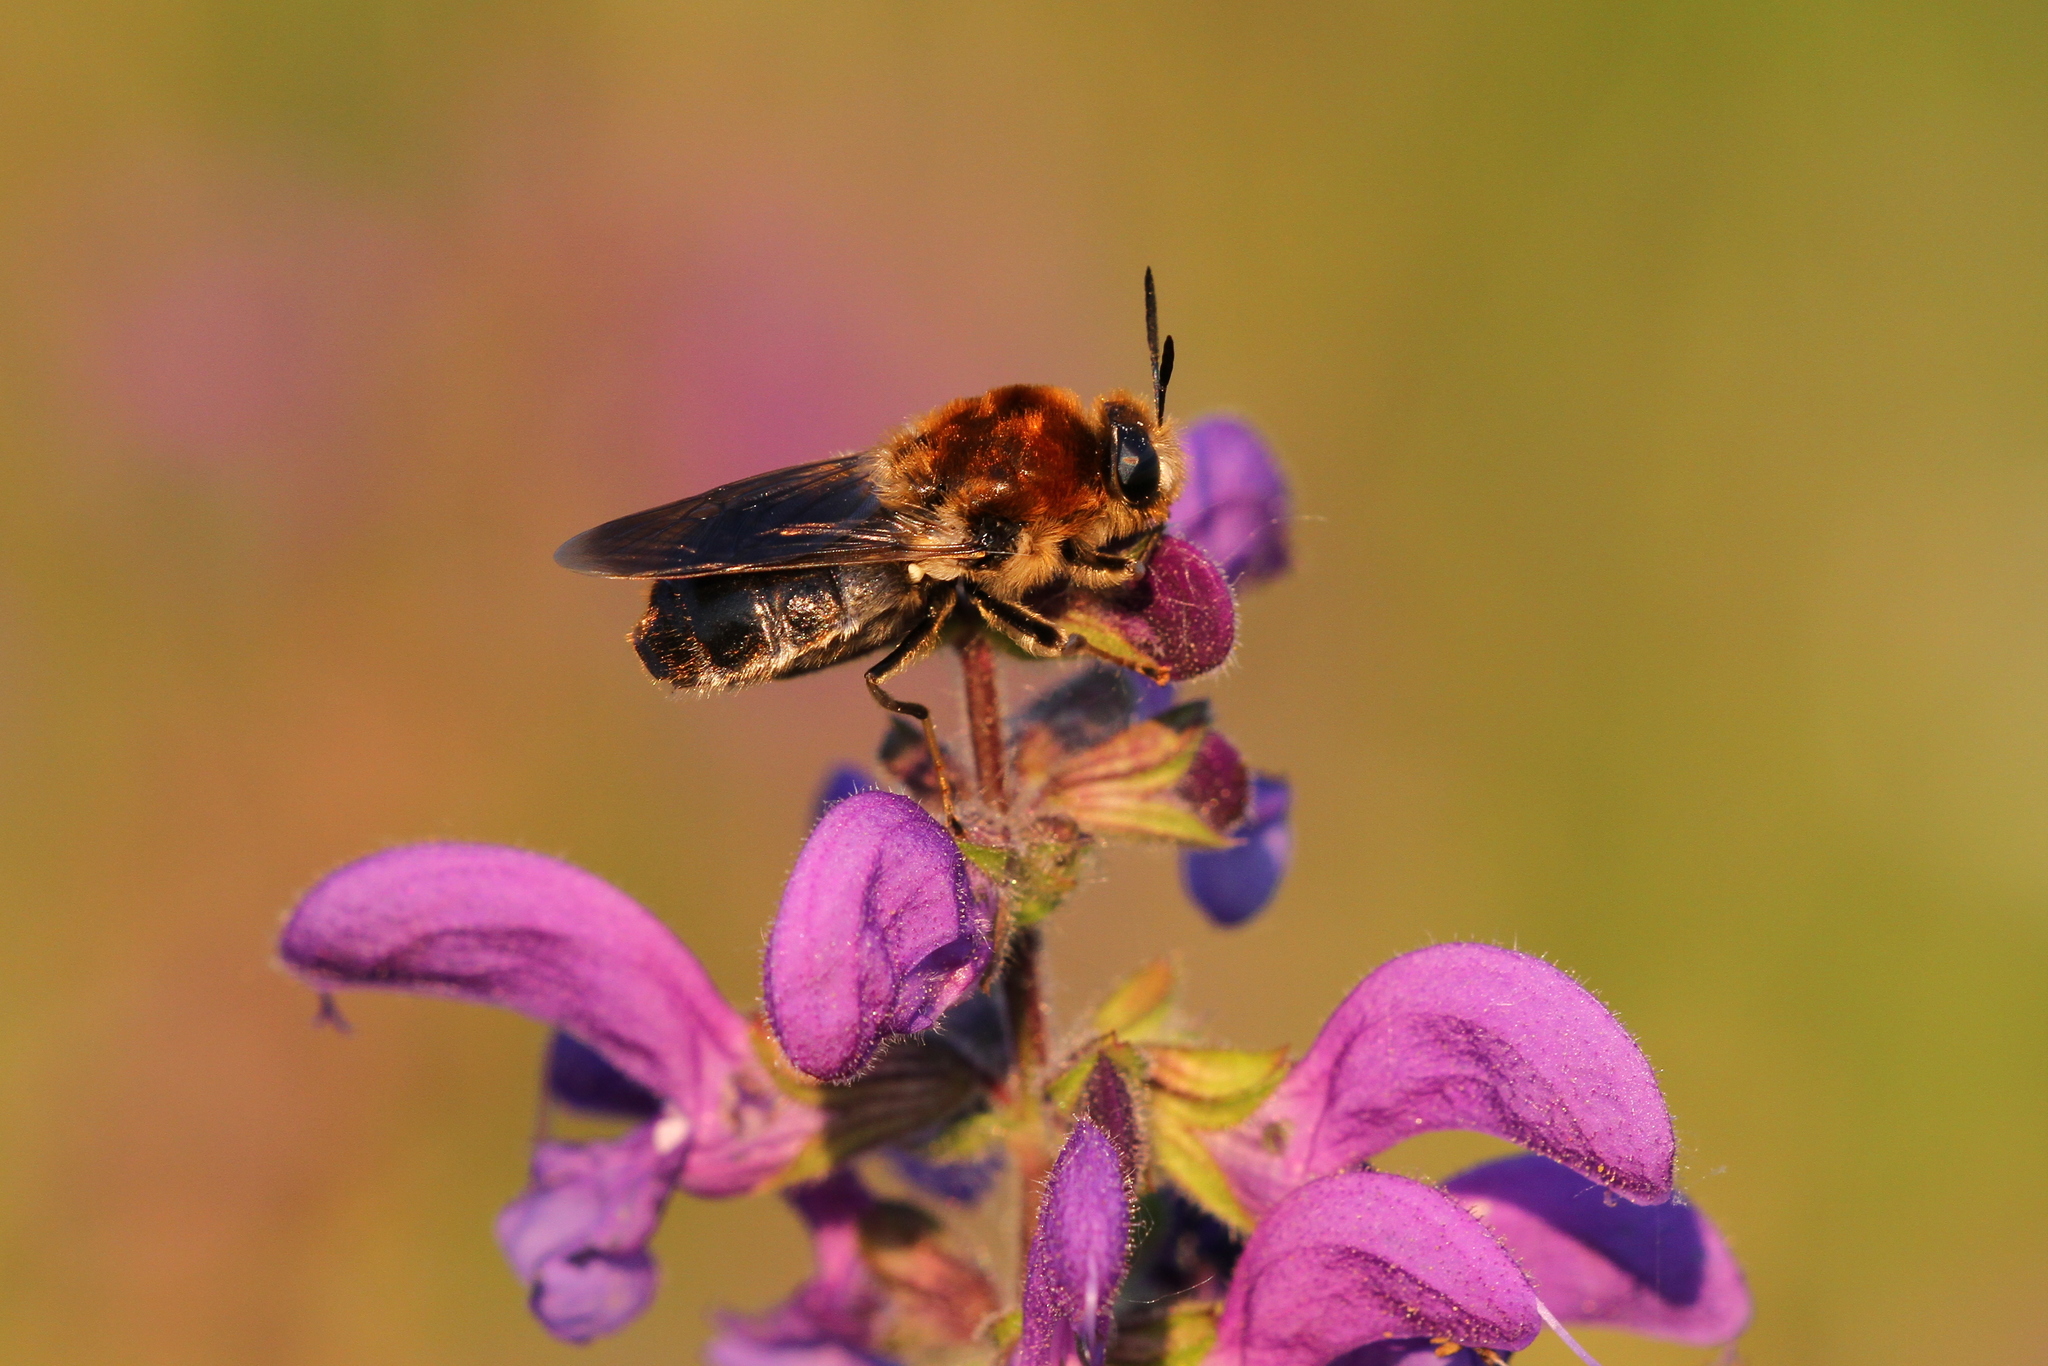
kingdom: Animalia
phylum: Arthropoda
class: Insecta
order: Diptera
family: Stratiomyidae
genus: Stratiomys
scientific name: Stratiomys longicornis
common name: Long-horned general
